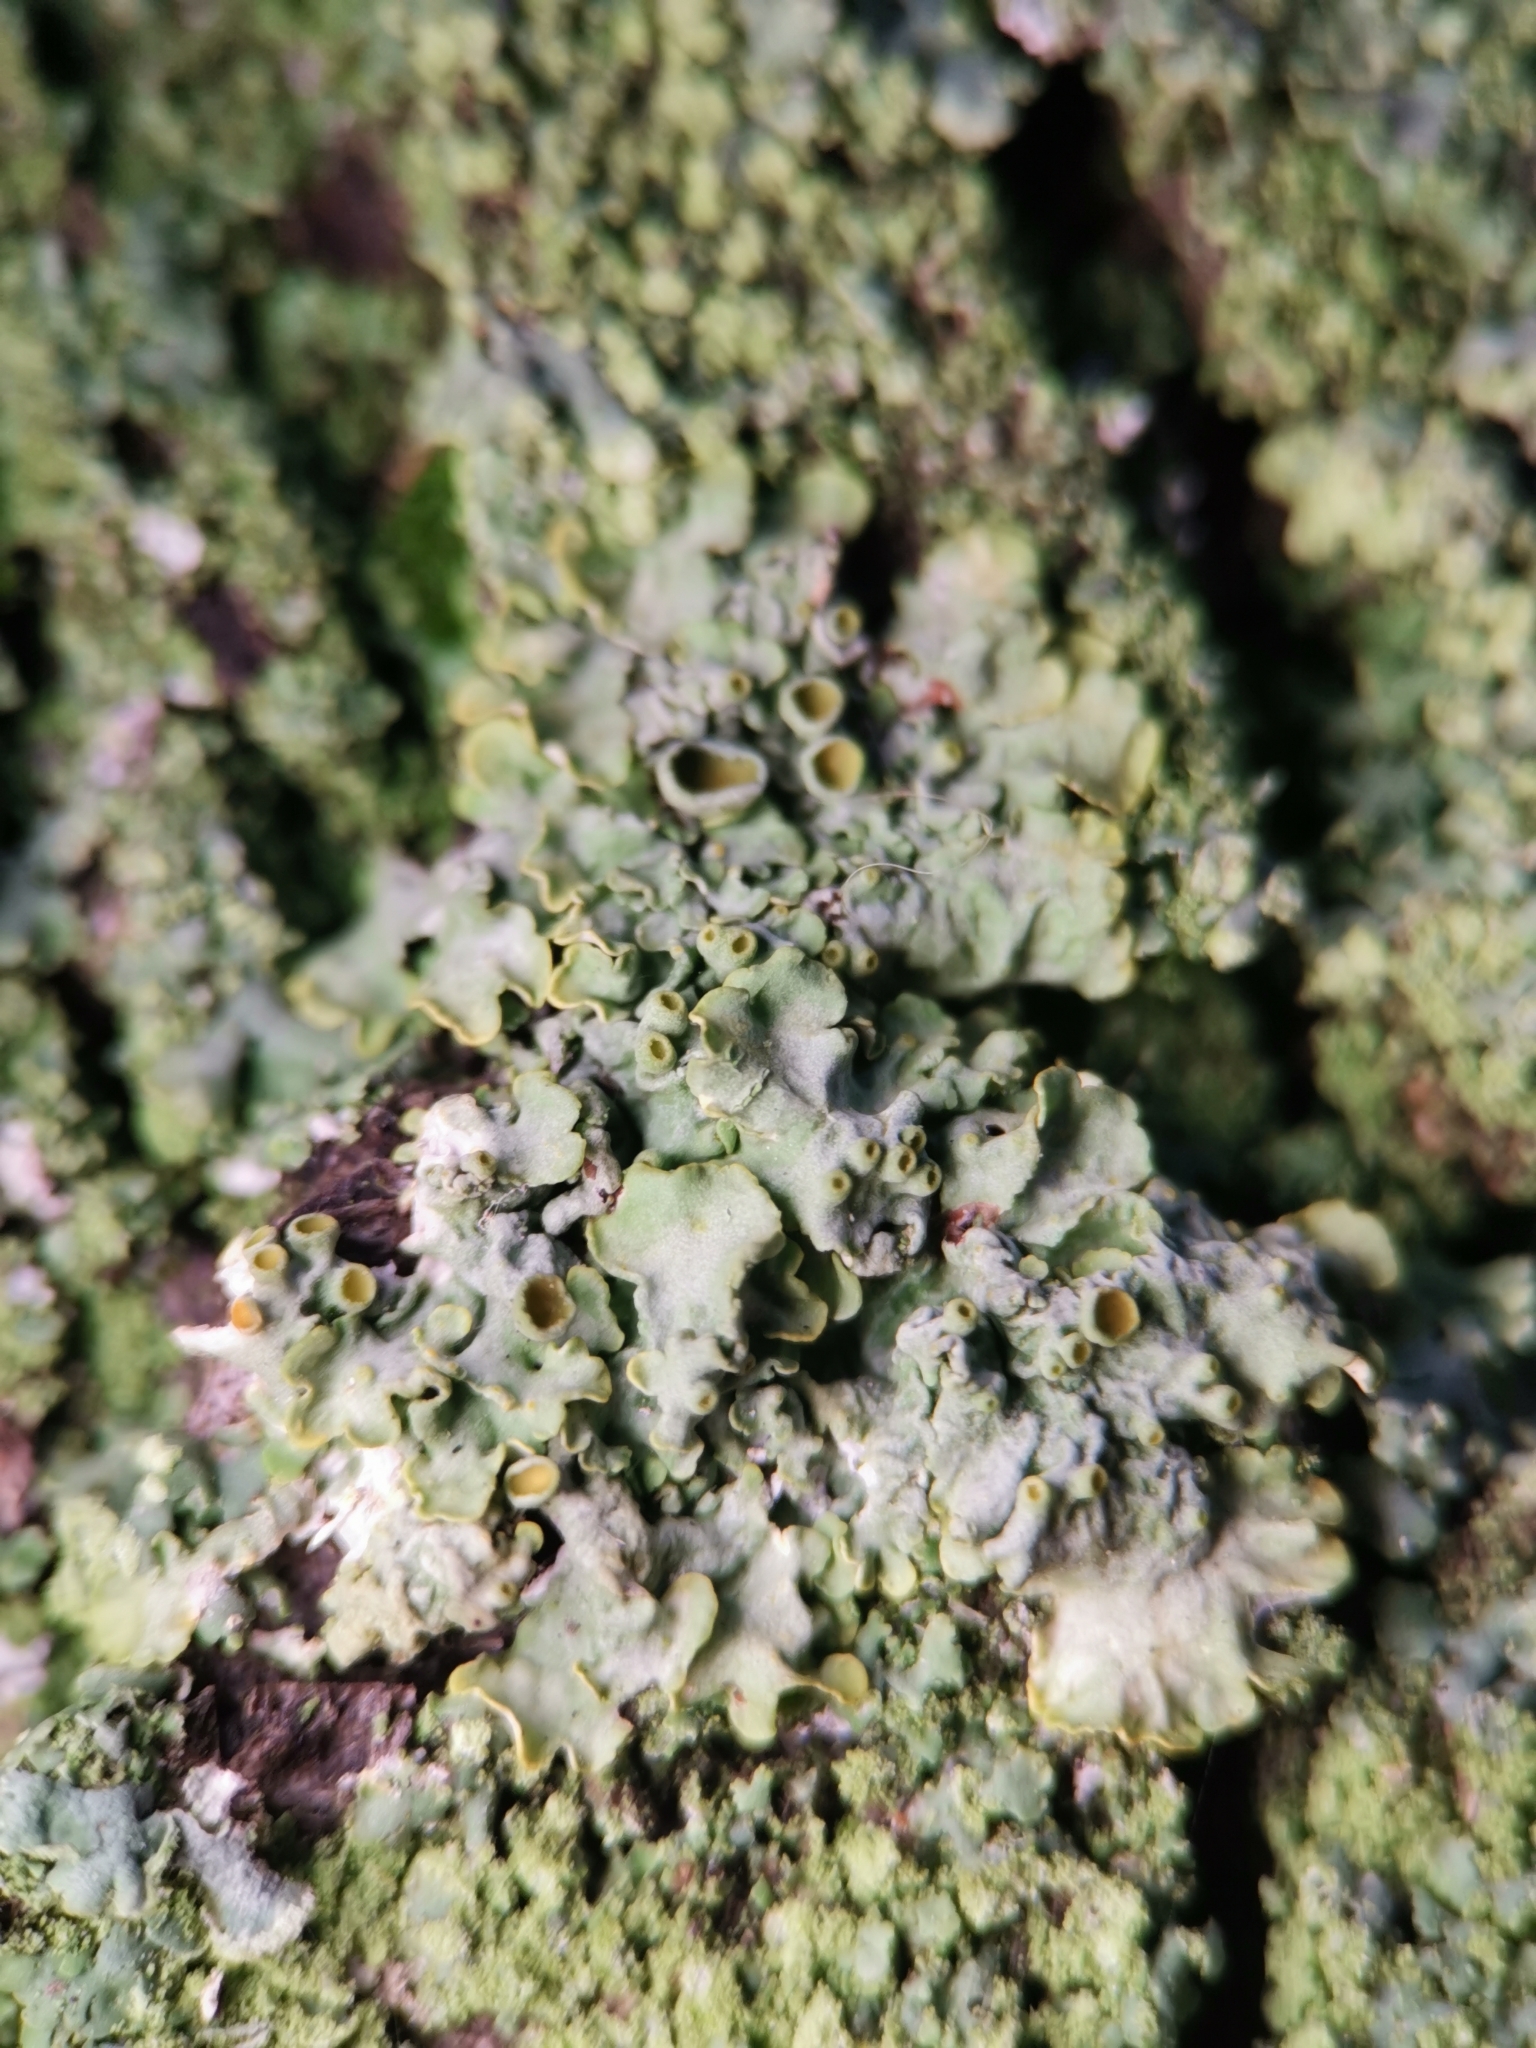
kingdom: Fungi
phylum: Ascomycota
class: Lecanoromycetes
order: Teloschistales
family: Teloschistaceae
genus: Xanthoria
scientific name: Xanthoria parietina
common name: Common orange lichen
